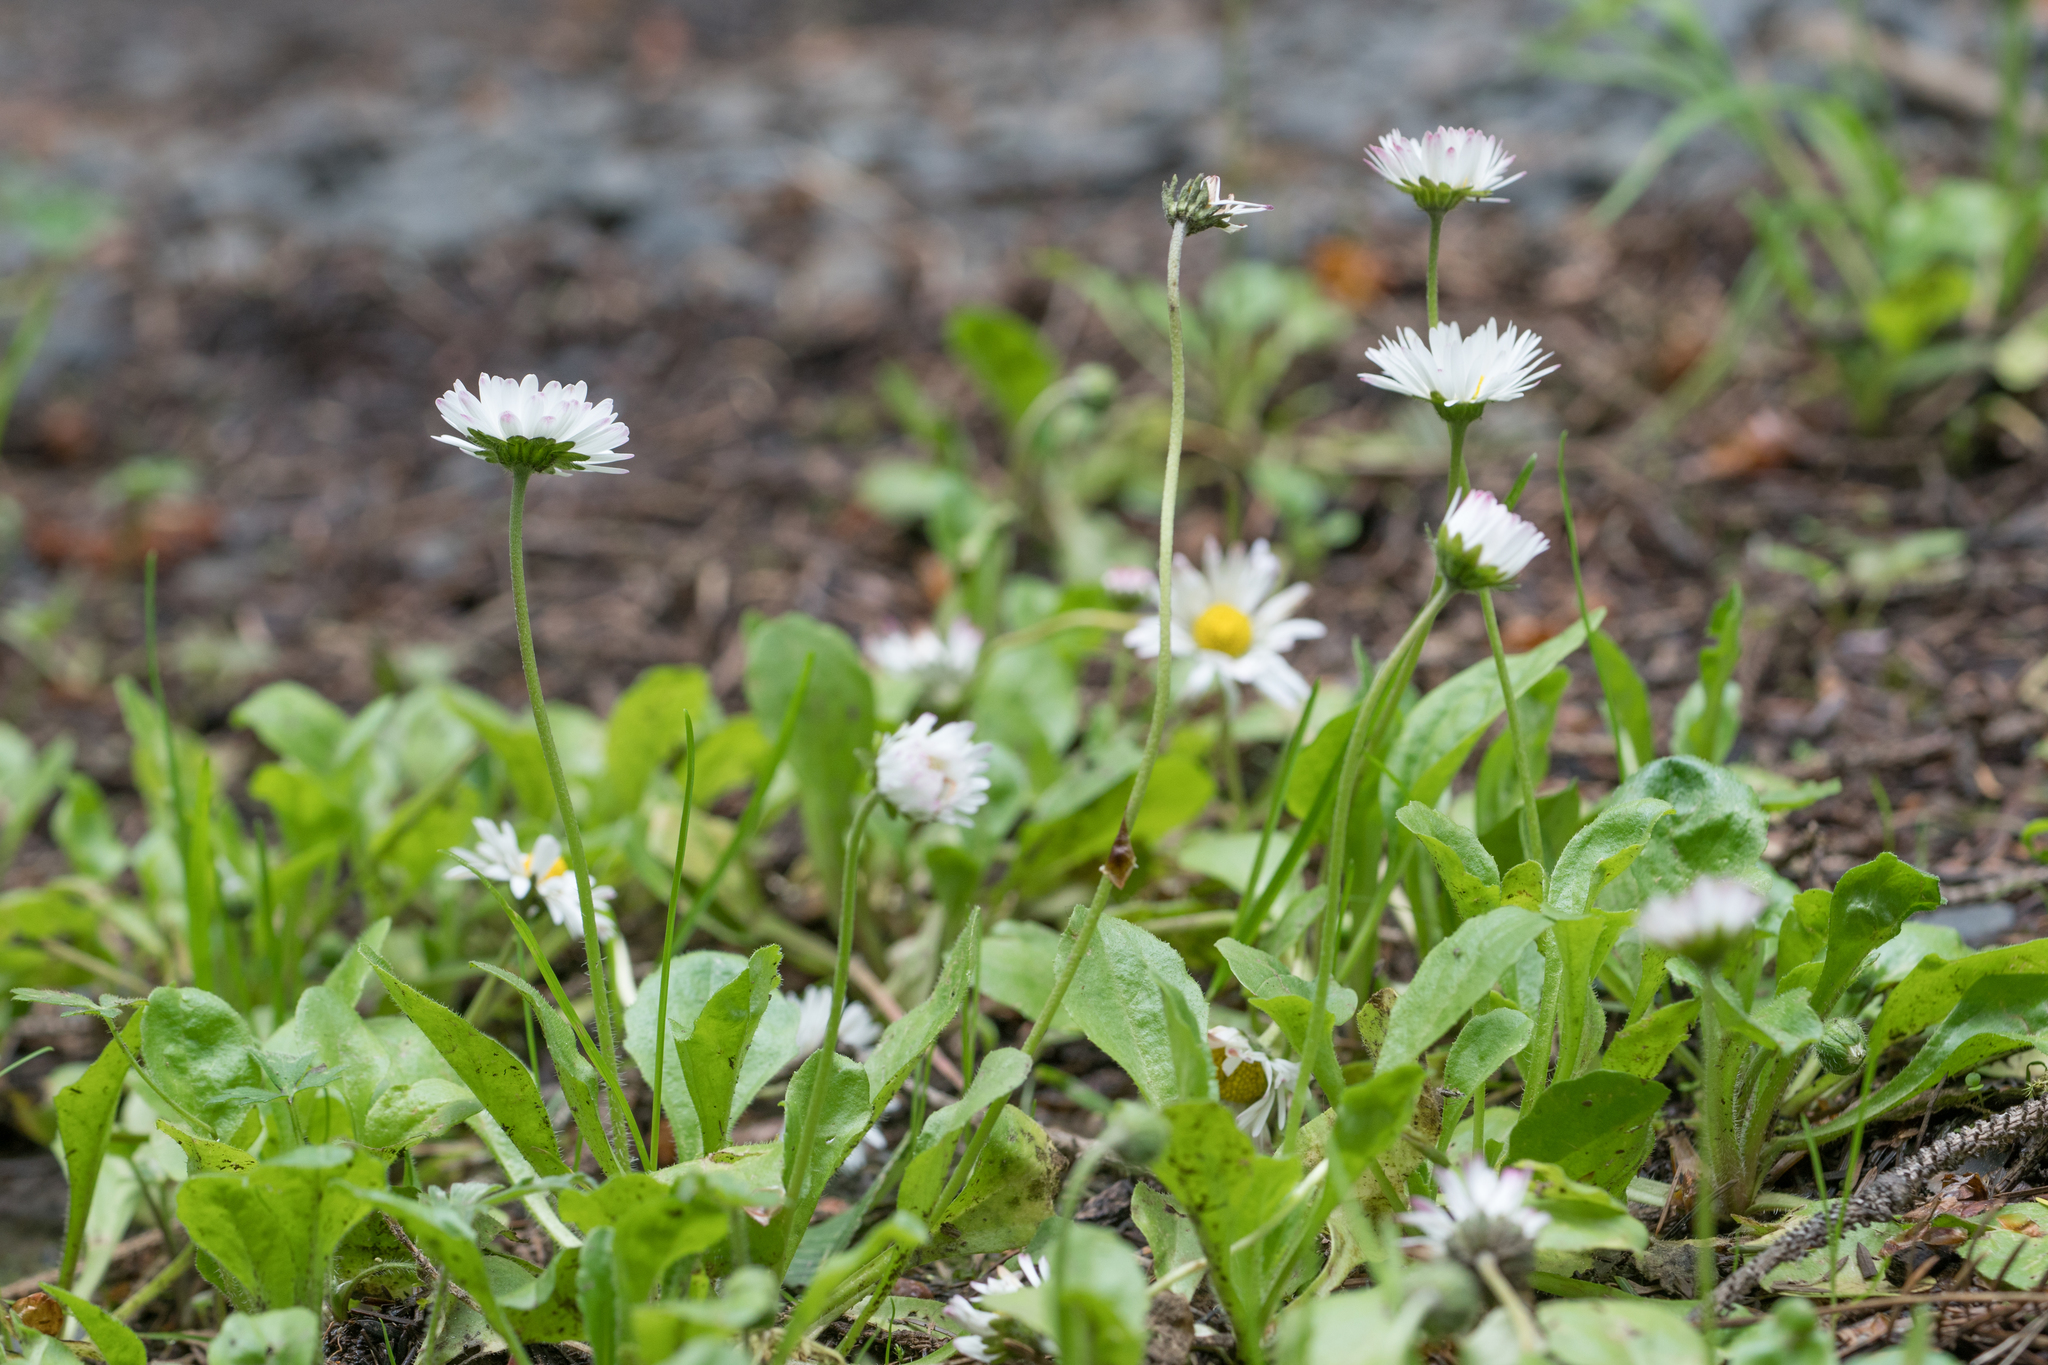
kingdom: Plantae
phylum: Tracheophyta
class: Magnoliopsida
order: Asterales
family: Asteraceae
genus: Bellis
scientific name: Bellis perennis
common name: Lawndaisy
